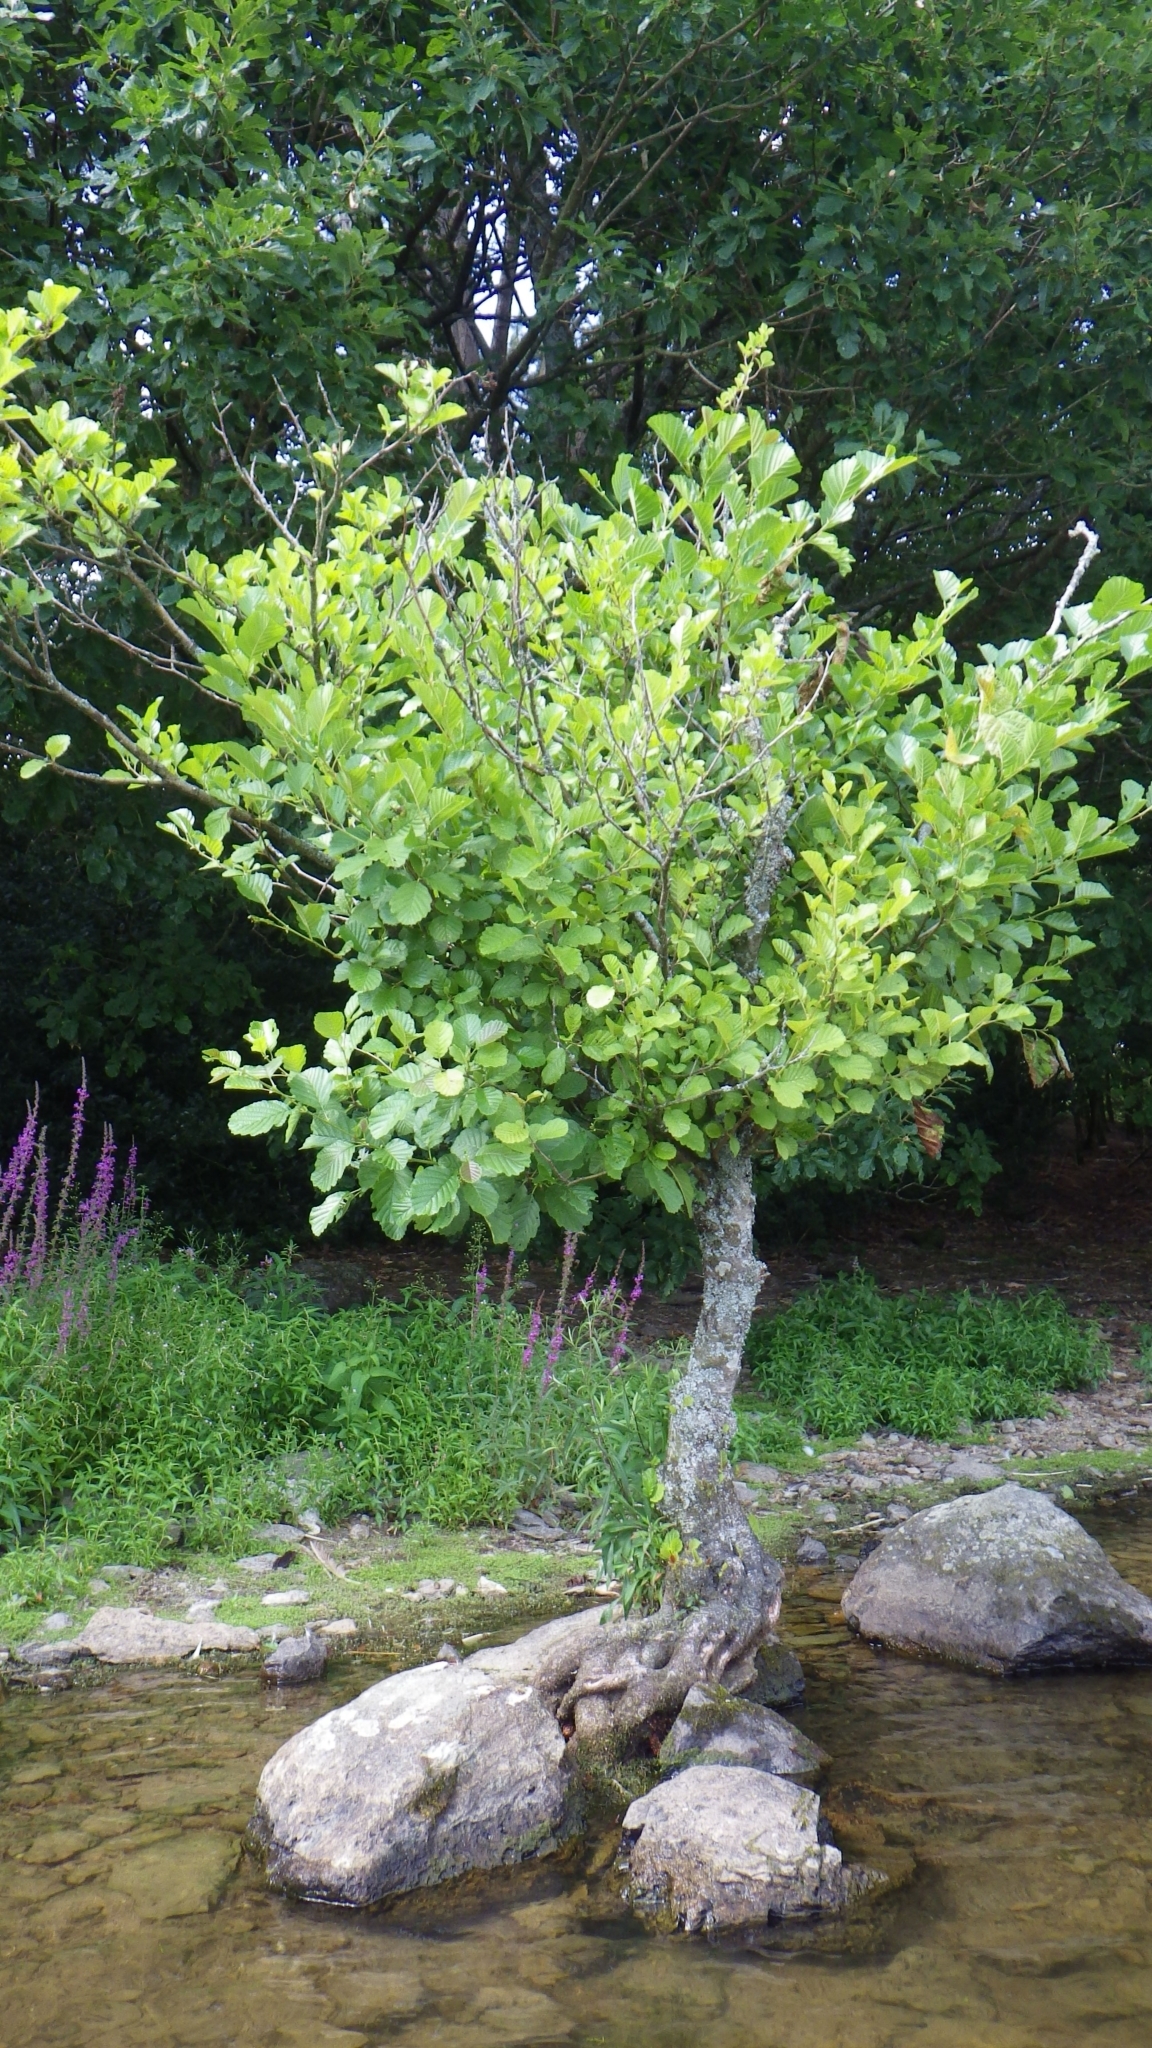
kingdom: Plantae
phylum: Tracheophyta
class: Magnoliopsida
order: Fagales
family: Betulaceae
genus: Alnus
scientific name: Alnus glutinosa
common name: Black alder
